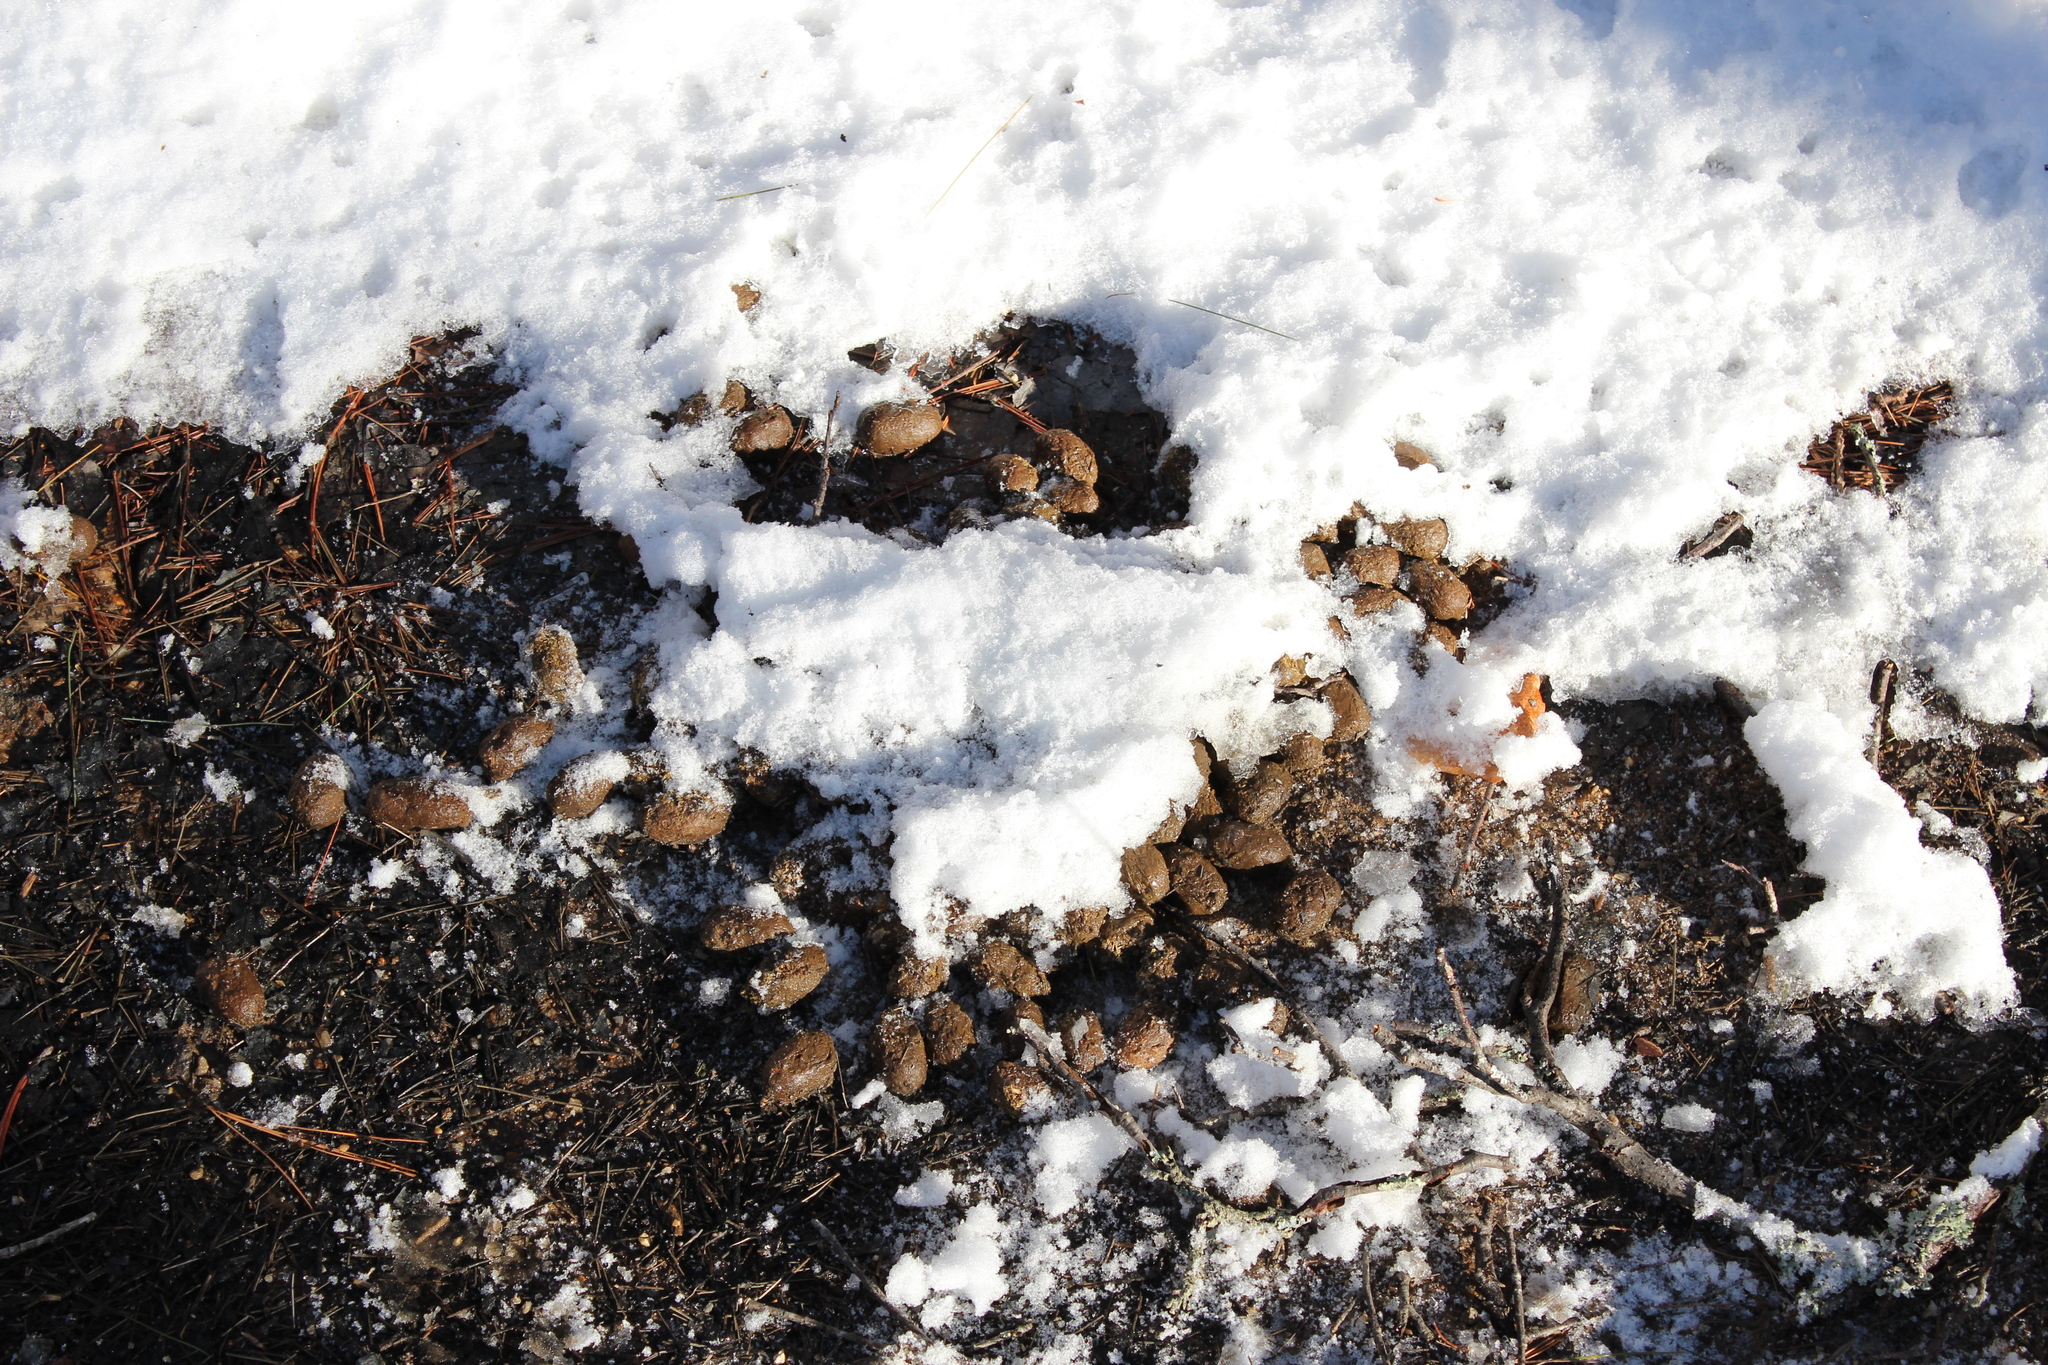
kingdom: Animalia
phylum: Chordata
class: Mammalia
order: Artiodactyla
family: Cervidae
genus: Alces
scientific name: Alces alces
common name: Moose
